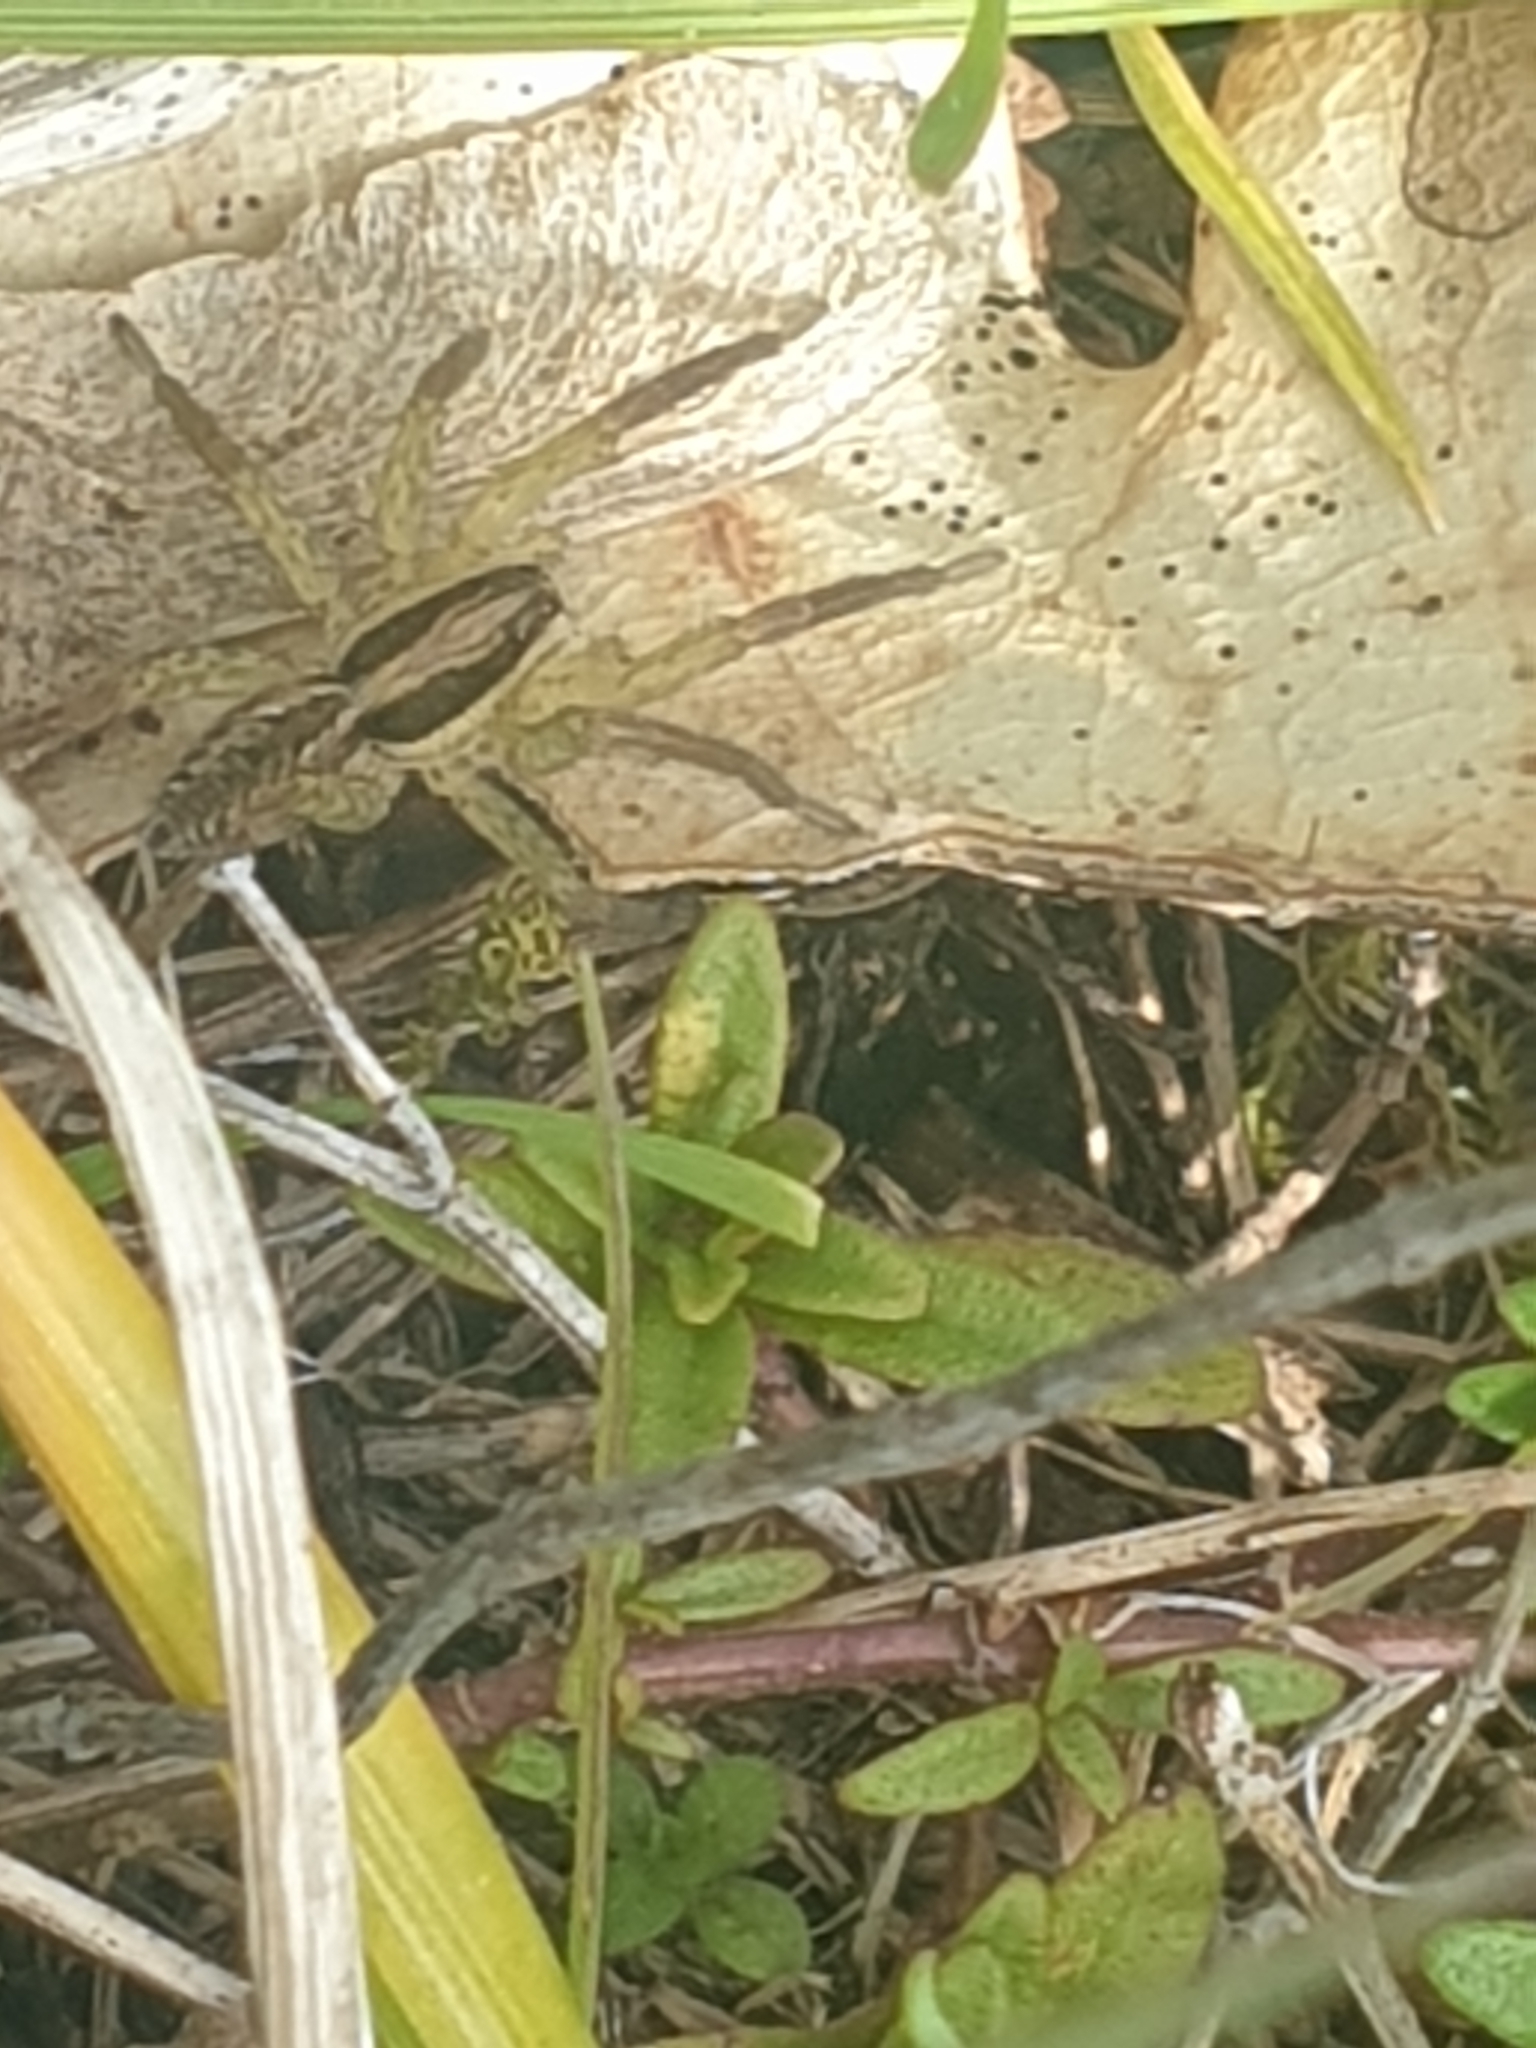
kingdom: Animalia
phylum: Arthropoda
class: Arachnida
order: Araneae
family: Lycosidae
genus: Hogna
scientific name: Hogna radiata
